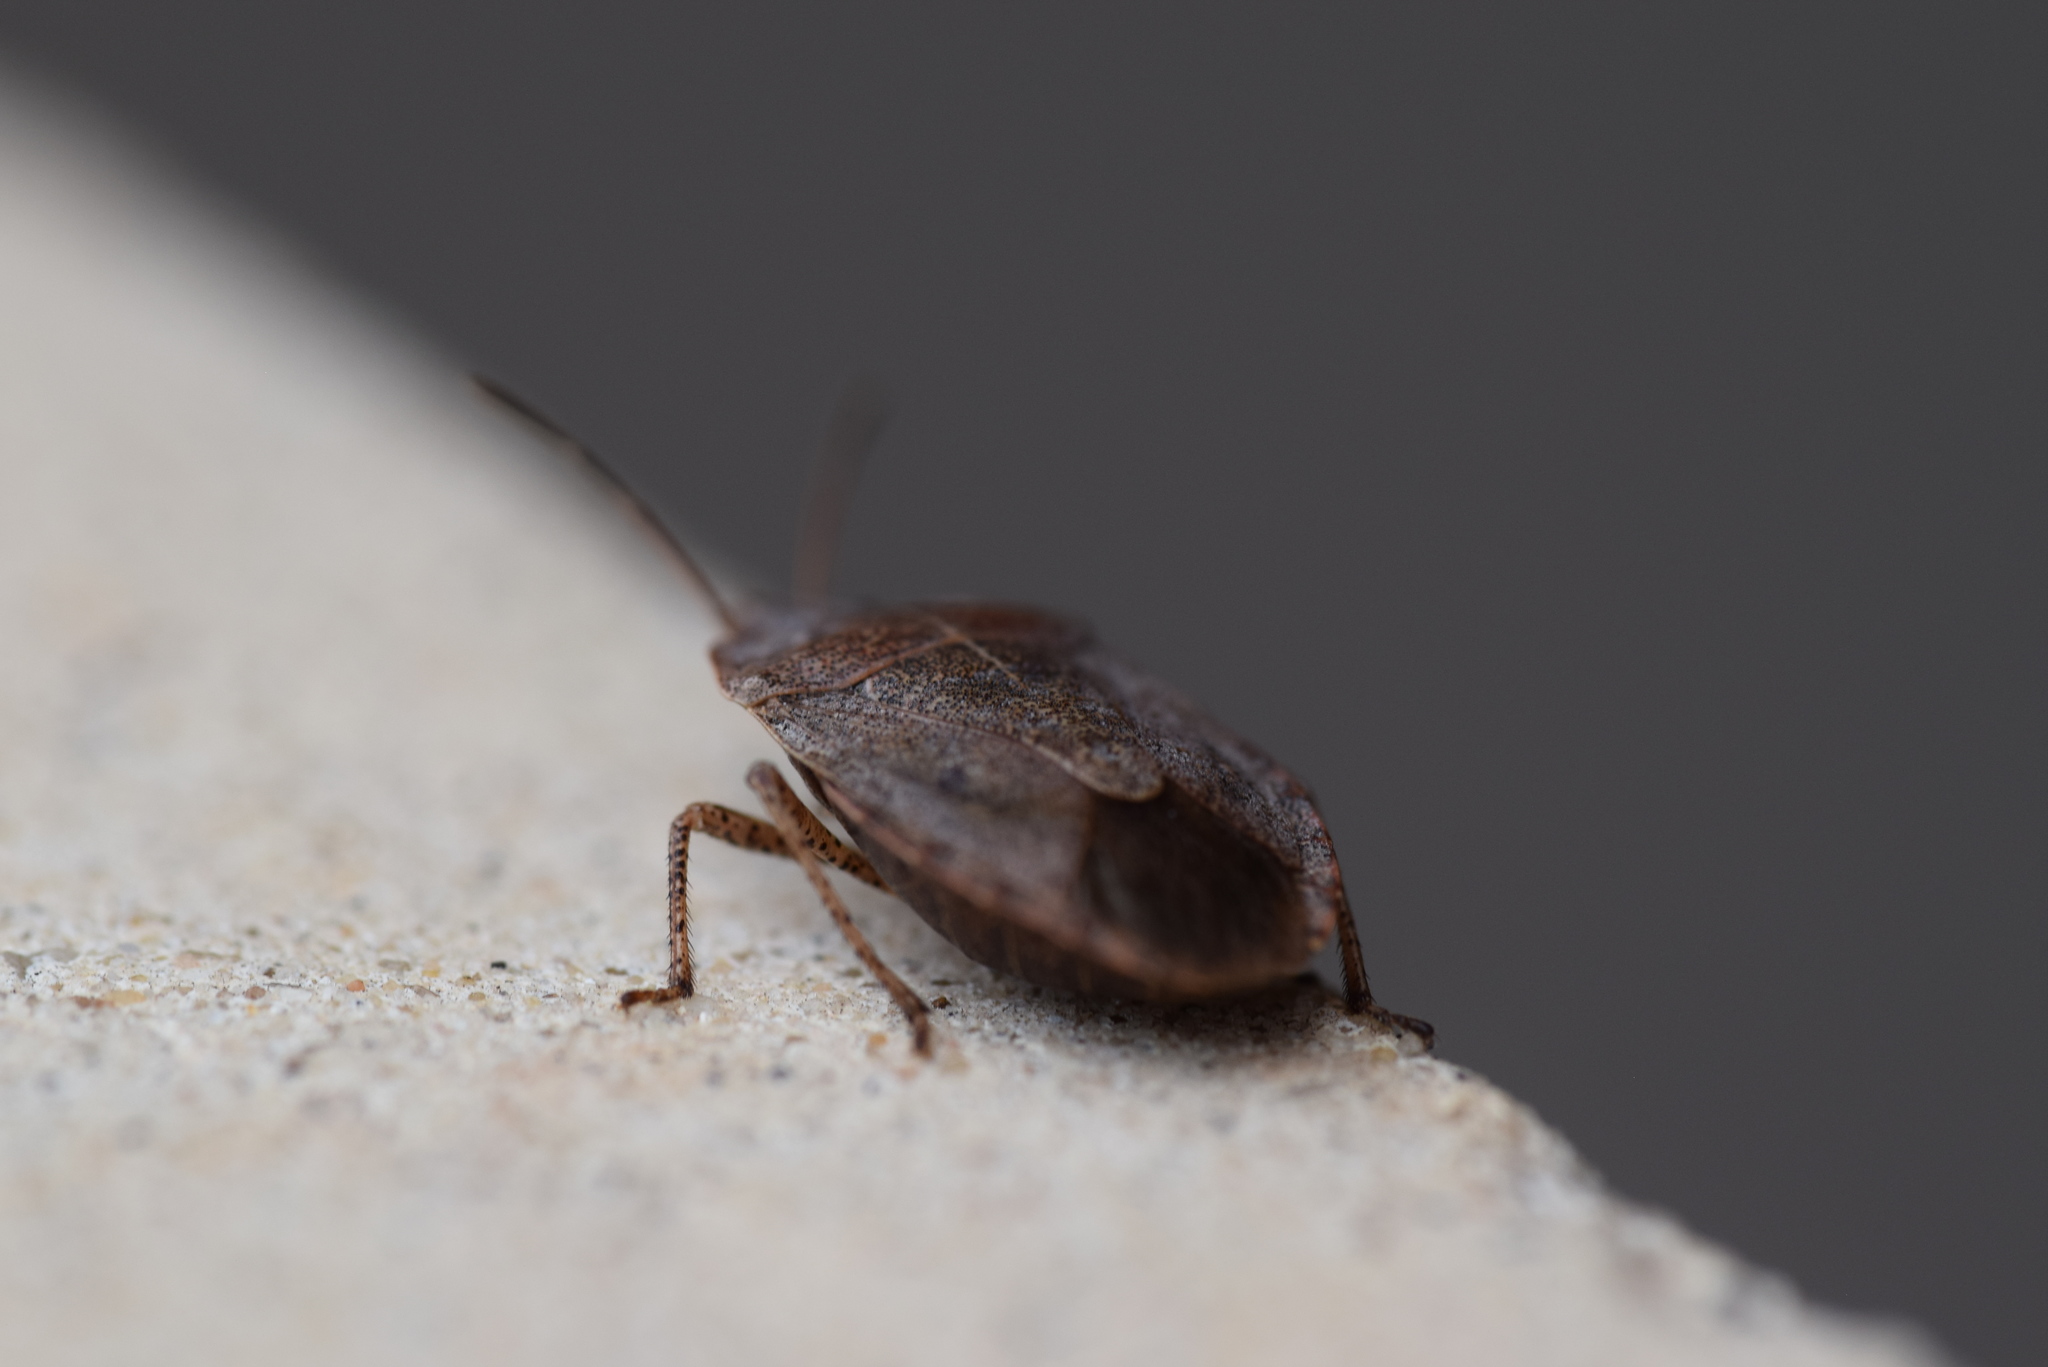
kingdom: Animalia
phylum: Arthropoda
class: Insecta
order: Hemiptera
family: Pentatomidae
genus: Menecles
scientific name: Menecles insertus
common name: Elf shoe stink bug
